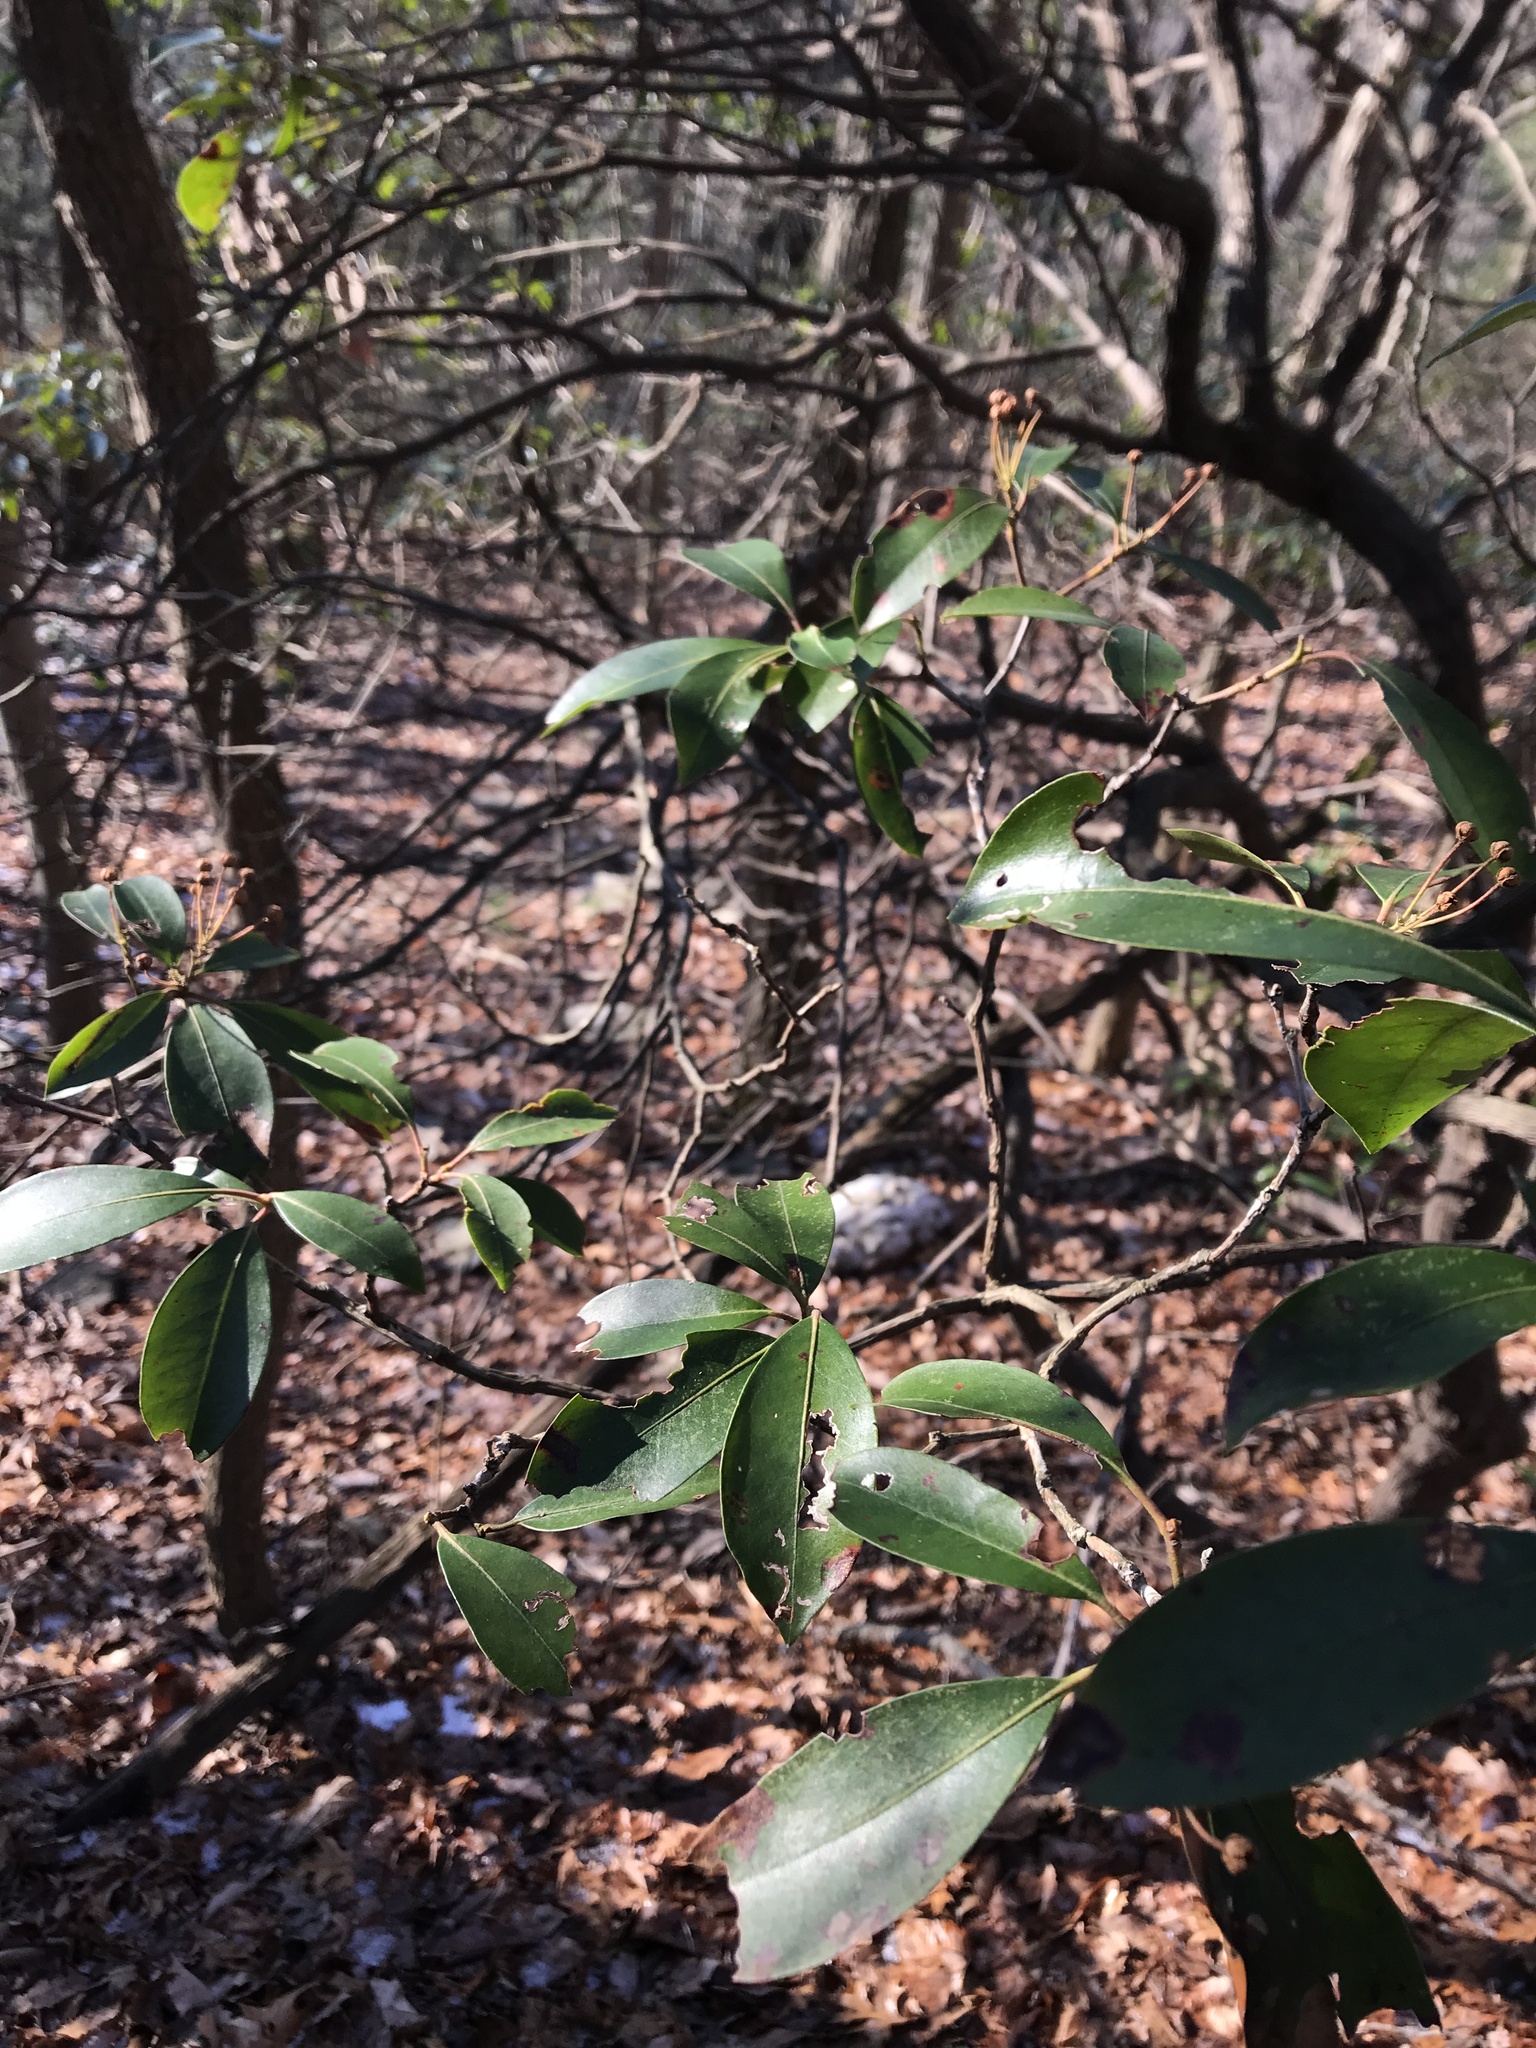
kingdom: Plantae
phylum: Tracheophyta
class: Magnoliopsida
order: Ericales
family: Ericaceae
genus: Kalmia
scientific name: Kalmia latifolia
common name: Mountain-laurel
